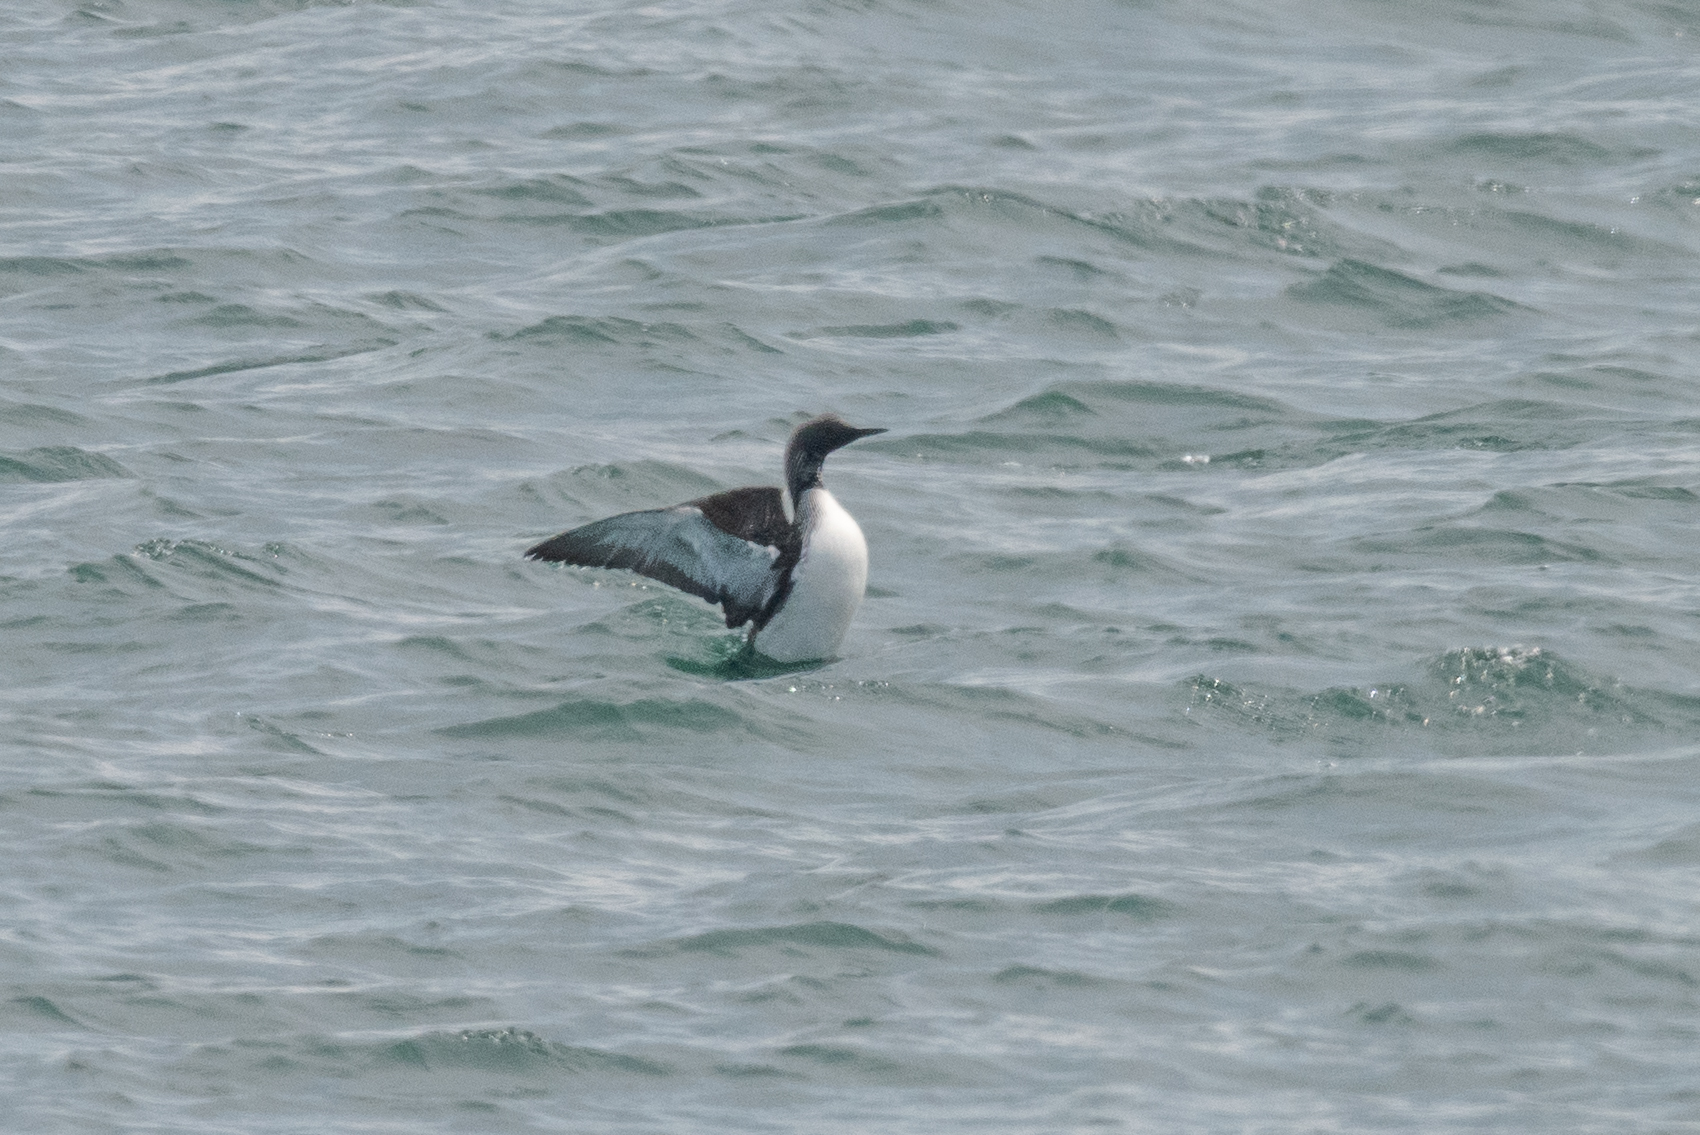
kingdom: Animalia
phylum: Chordata
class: Aves
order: Gaviiformes
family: Gaviidae
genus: Gavia
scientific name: Gavia arctica
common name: Black-throated loon
